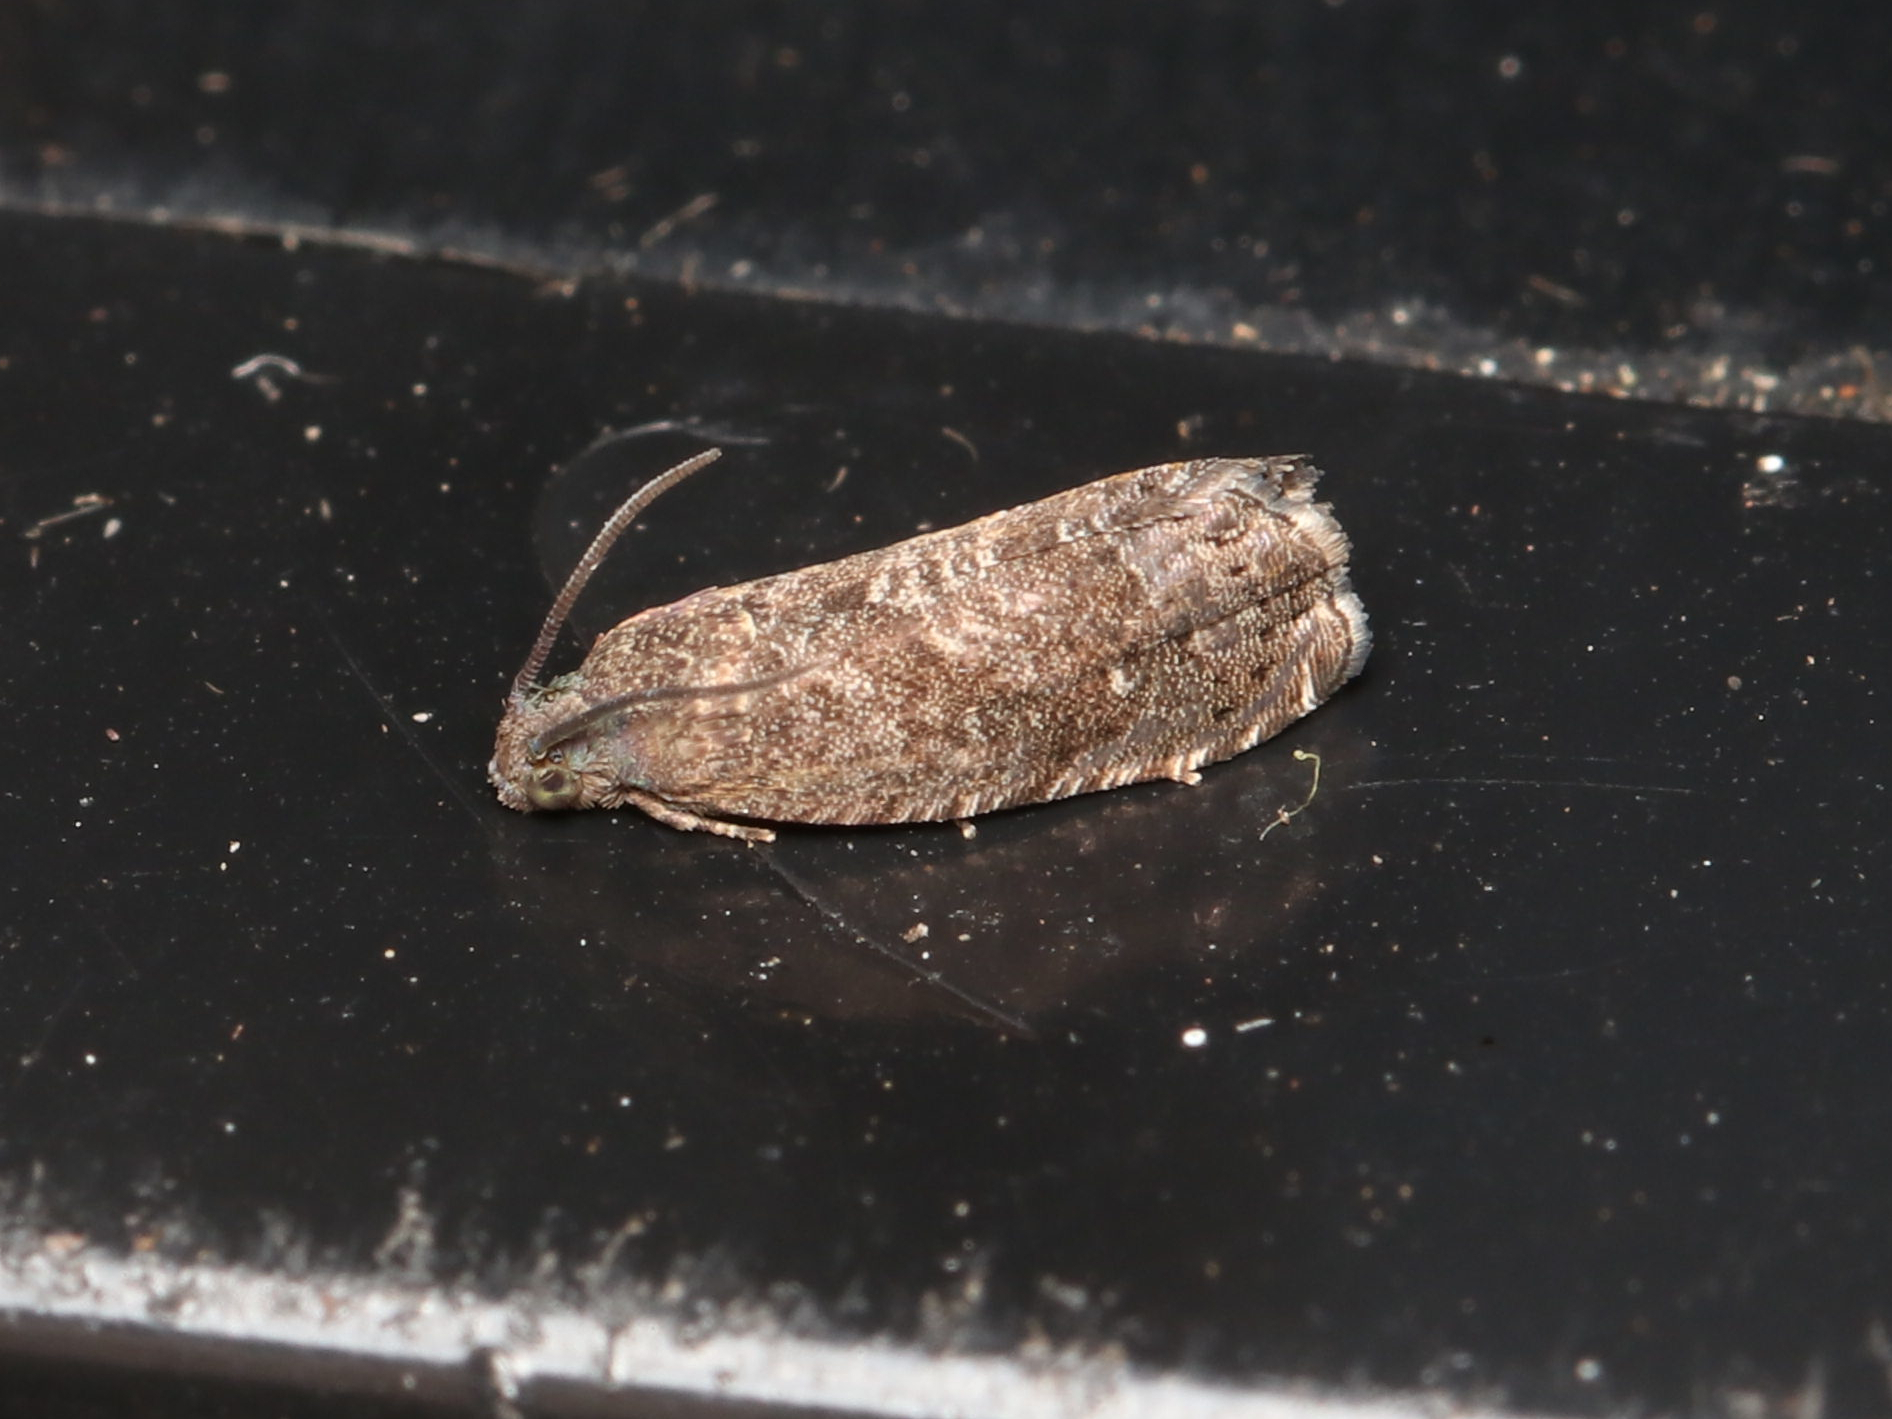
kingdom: Animalia
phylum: Arthropoda
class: Insecta
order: Lepidoptera
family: Noctuidae
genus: Aspila
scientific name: Aspila
